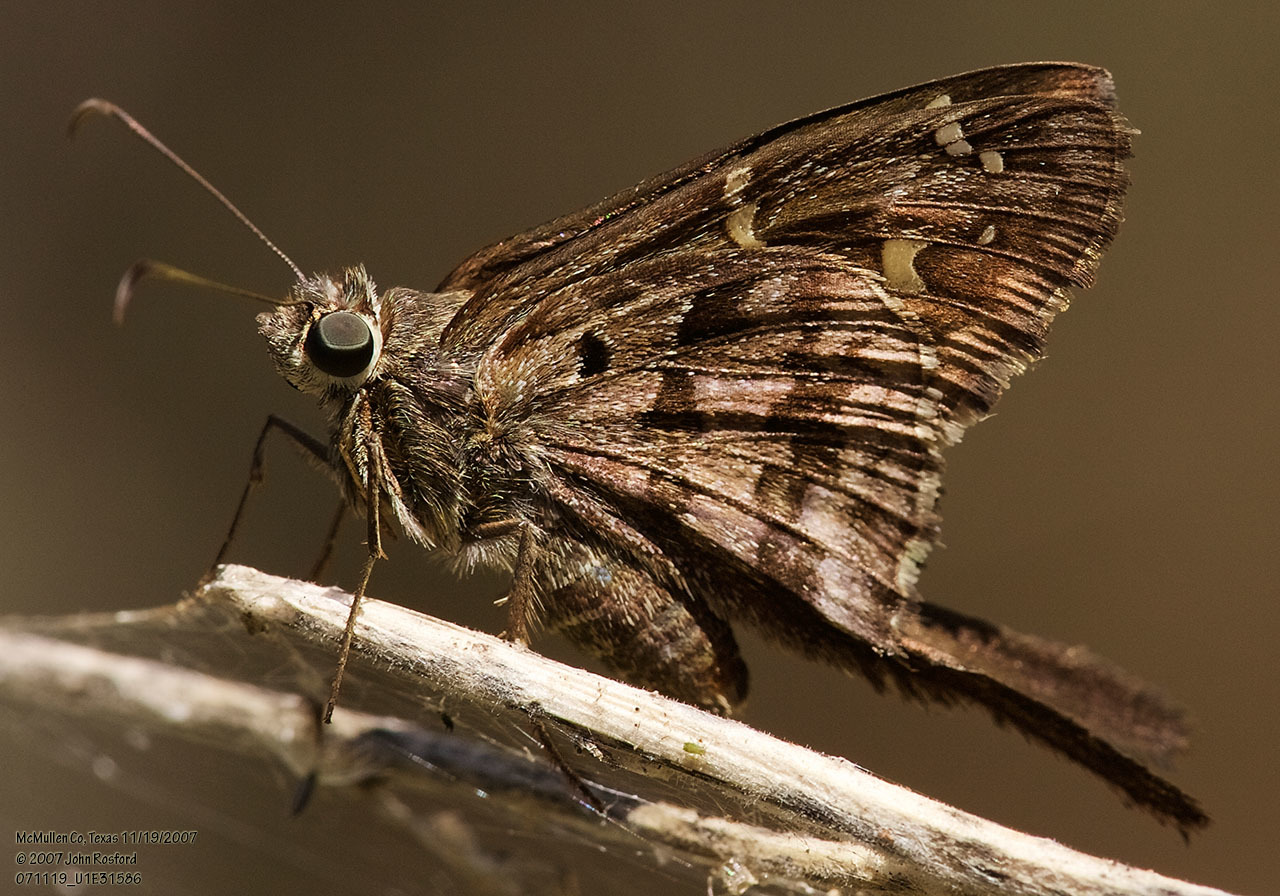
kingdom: Animalia
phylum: Arthropoda
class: Insecta
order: Lepidoptera
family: Hesperiidae
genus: Thorybes
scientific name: Thorybes
